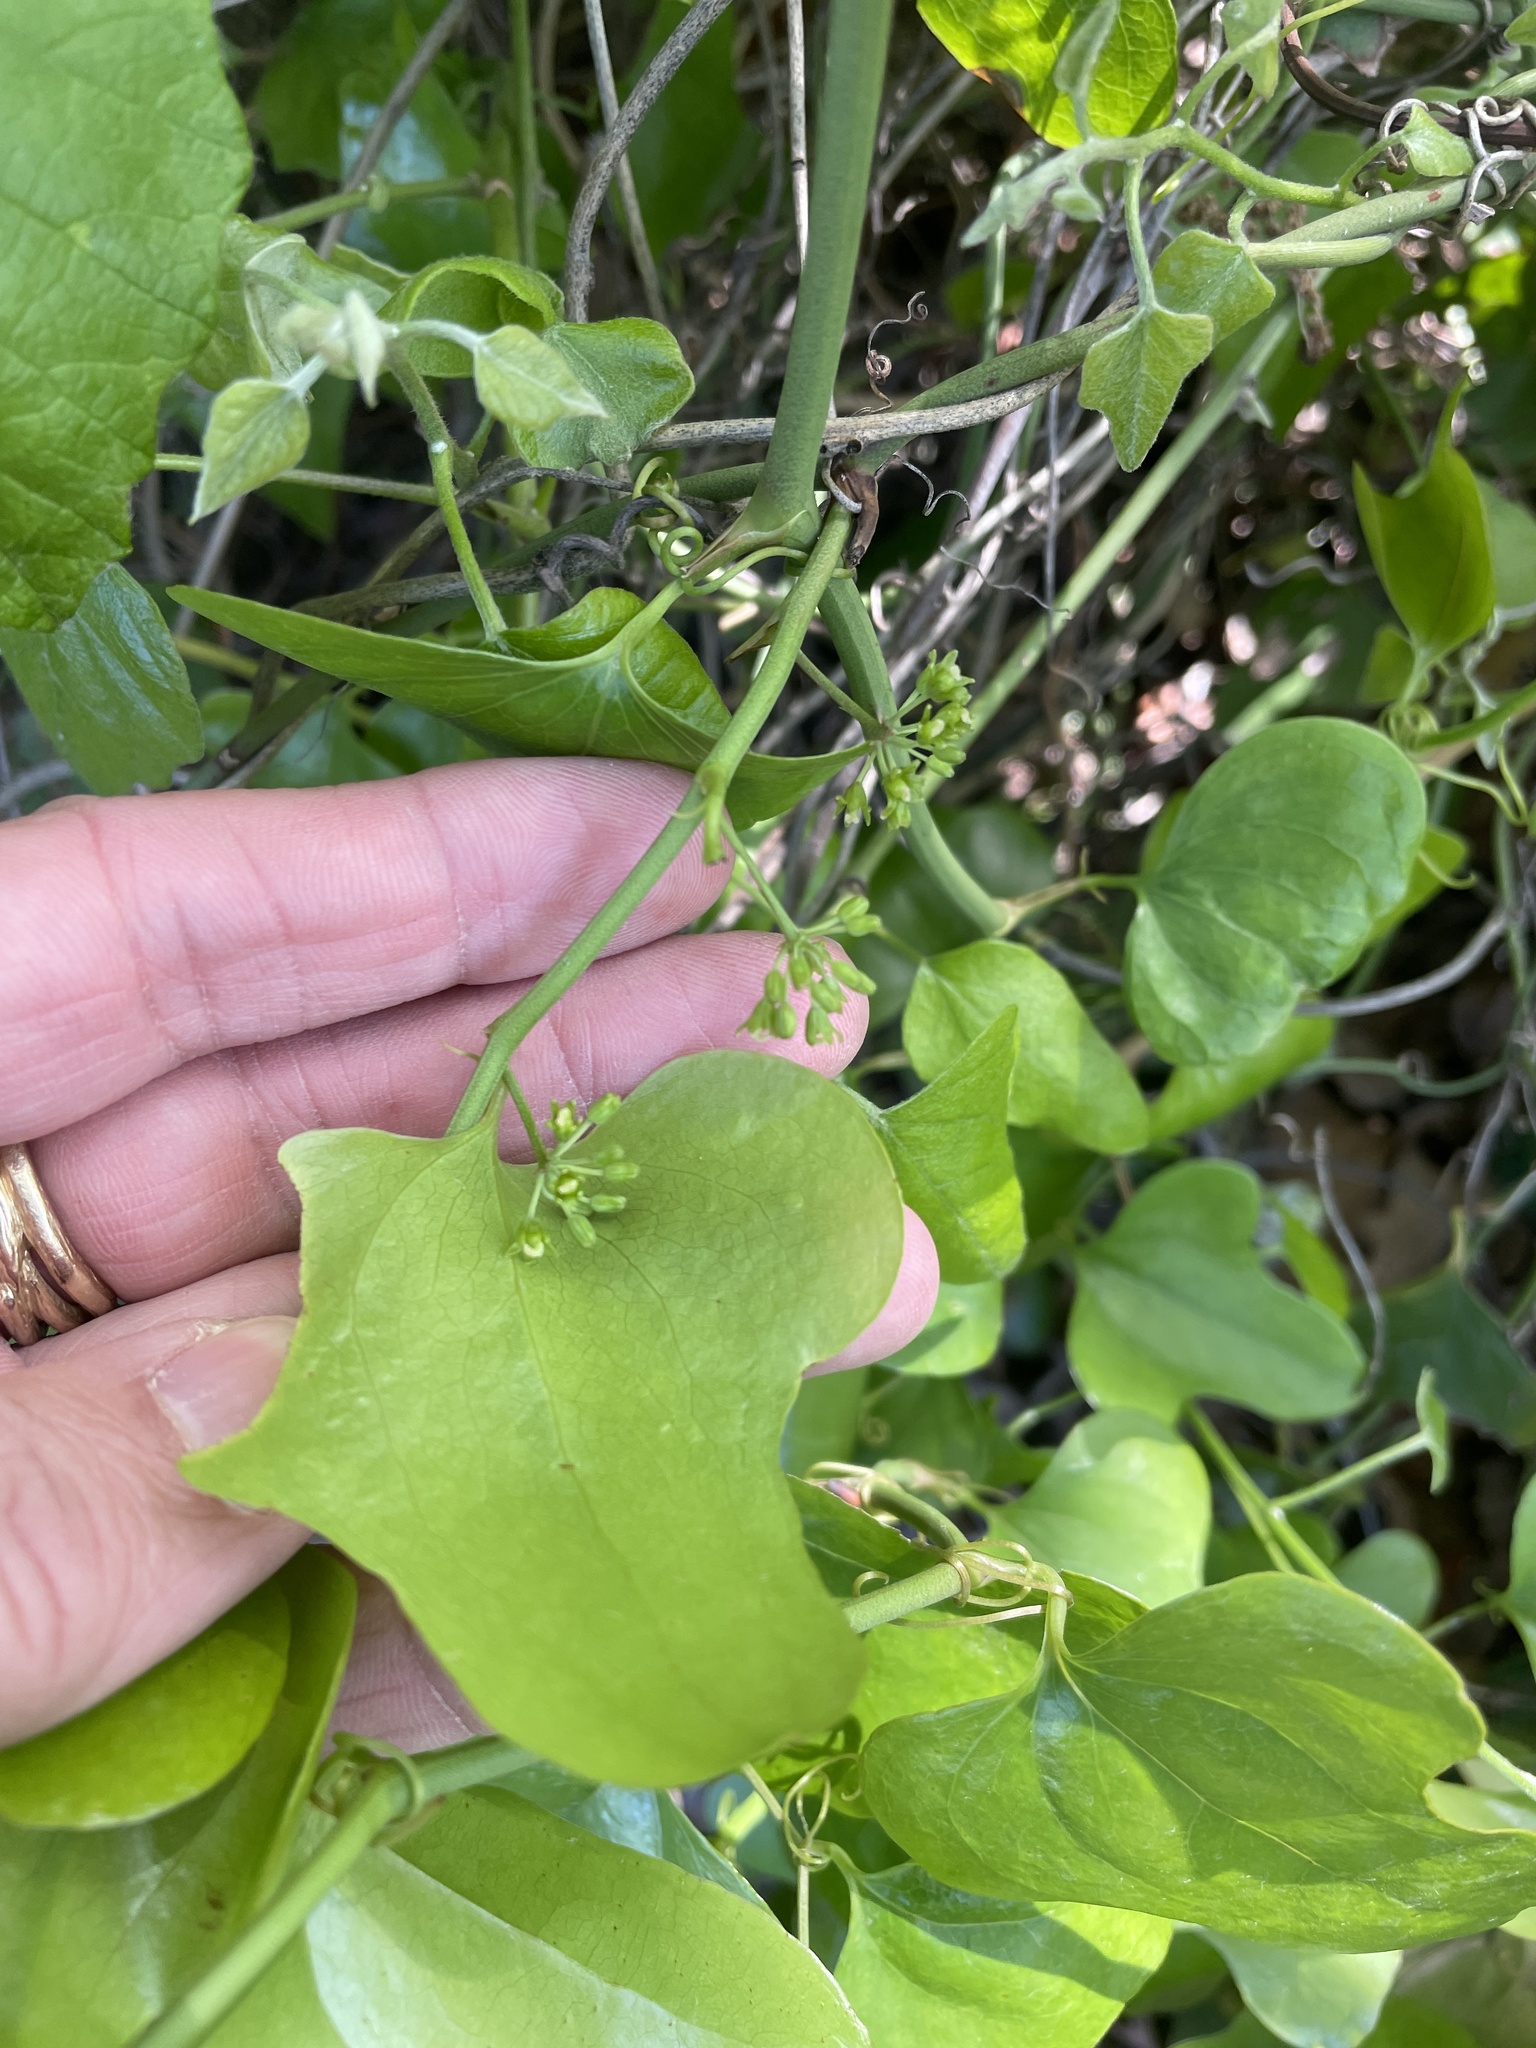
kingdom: Plantae
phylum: Tracheophyta
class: Liliopsida
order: Liliales
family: Smilacaceae
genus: Smilax
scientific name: Smilax bona-nox
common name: Catbrier
